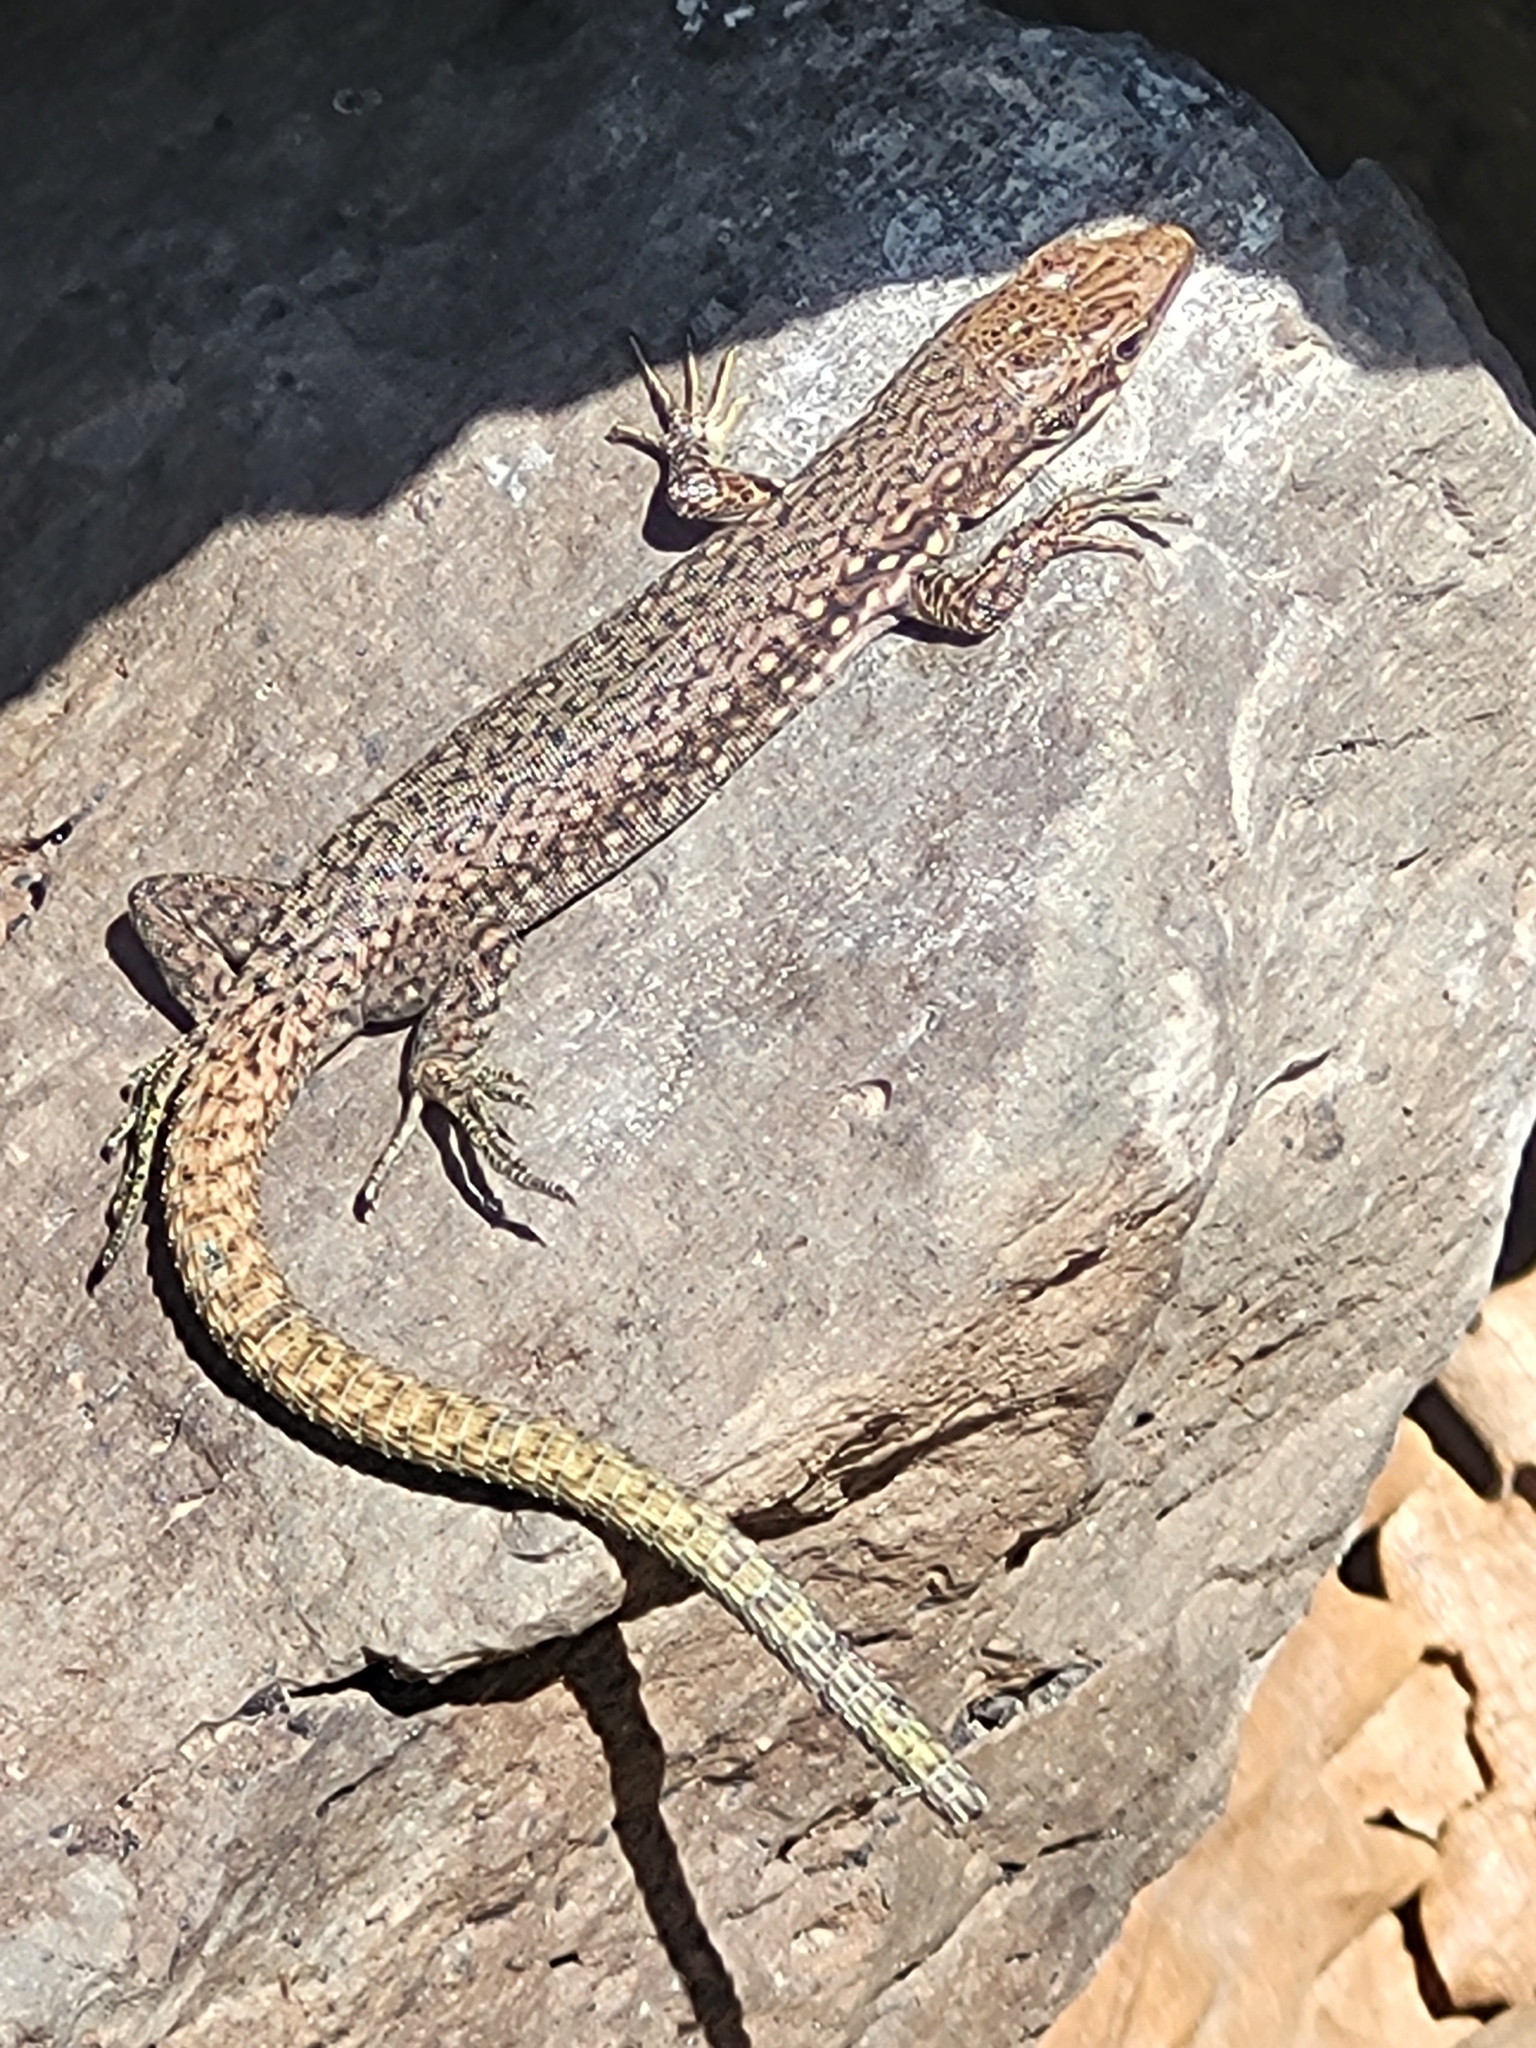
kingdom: Animalia
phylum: Chordata
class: Squamata
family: Lacertidae
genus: Darevskia
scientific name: Darevskia unisexualis
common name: Unisexual lizard
